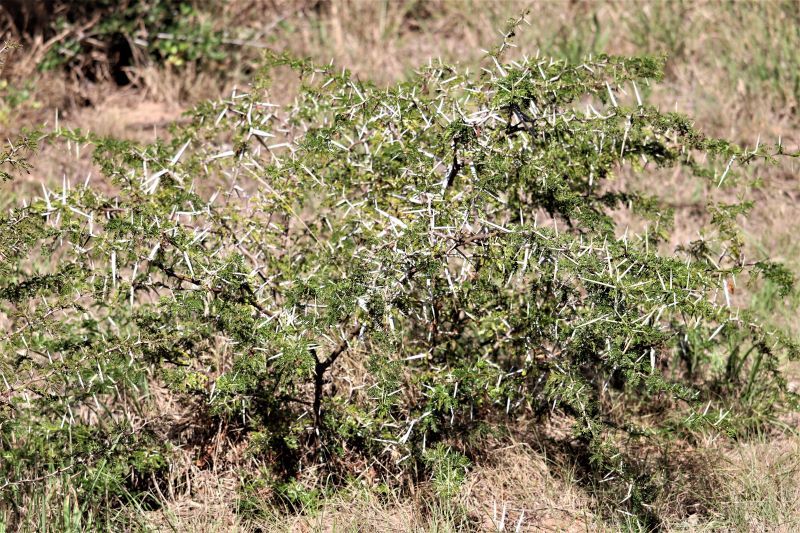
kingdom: Plantae
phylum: Tracheophyta
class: Magnoliopsida
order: Fabales
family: Fabaceae
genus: Vachellia
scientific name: Vachellia karroo
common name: Sweet thorn
